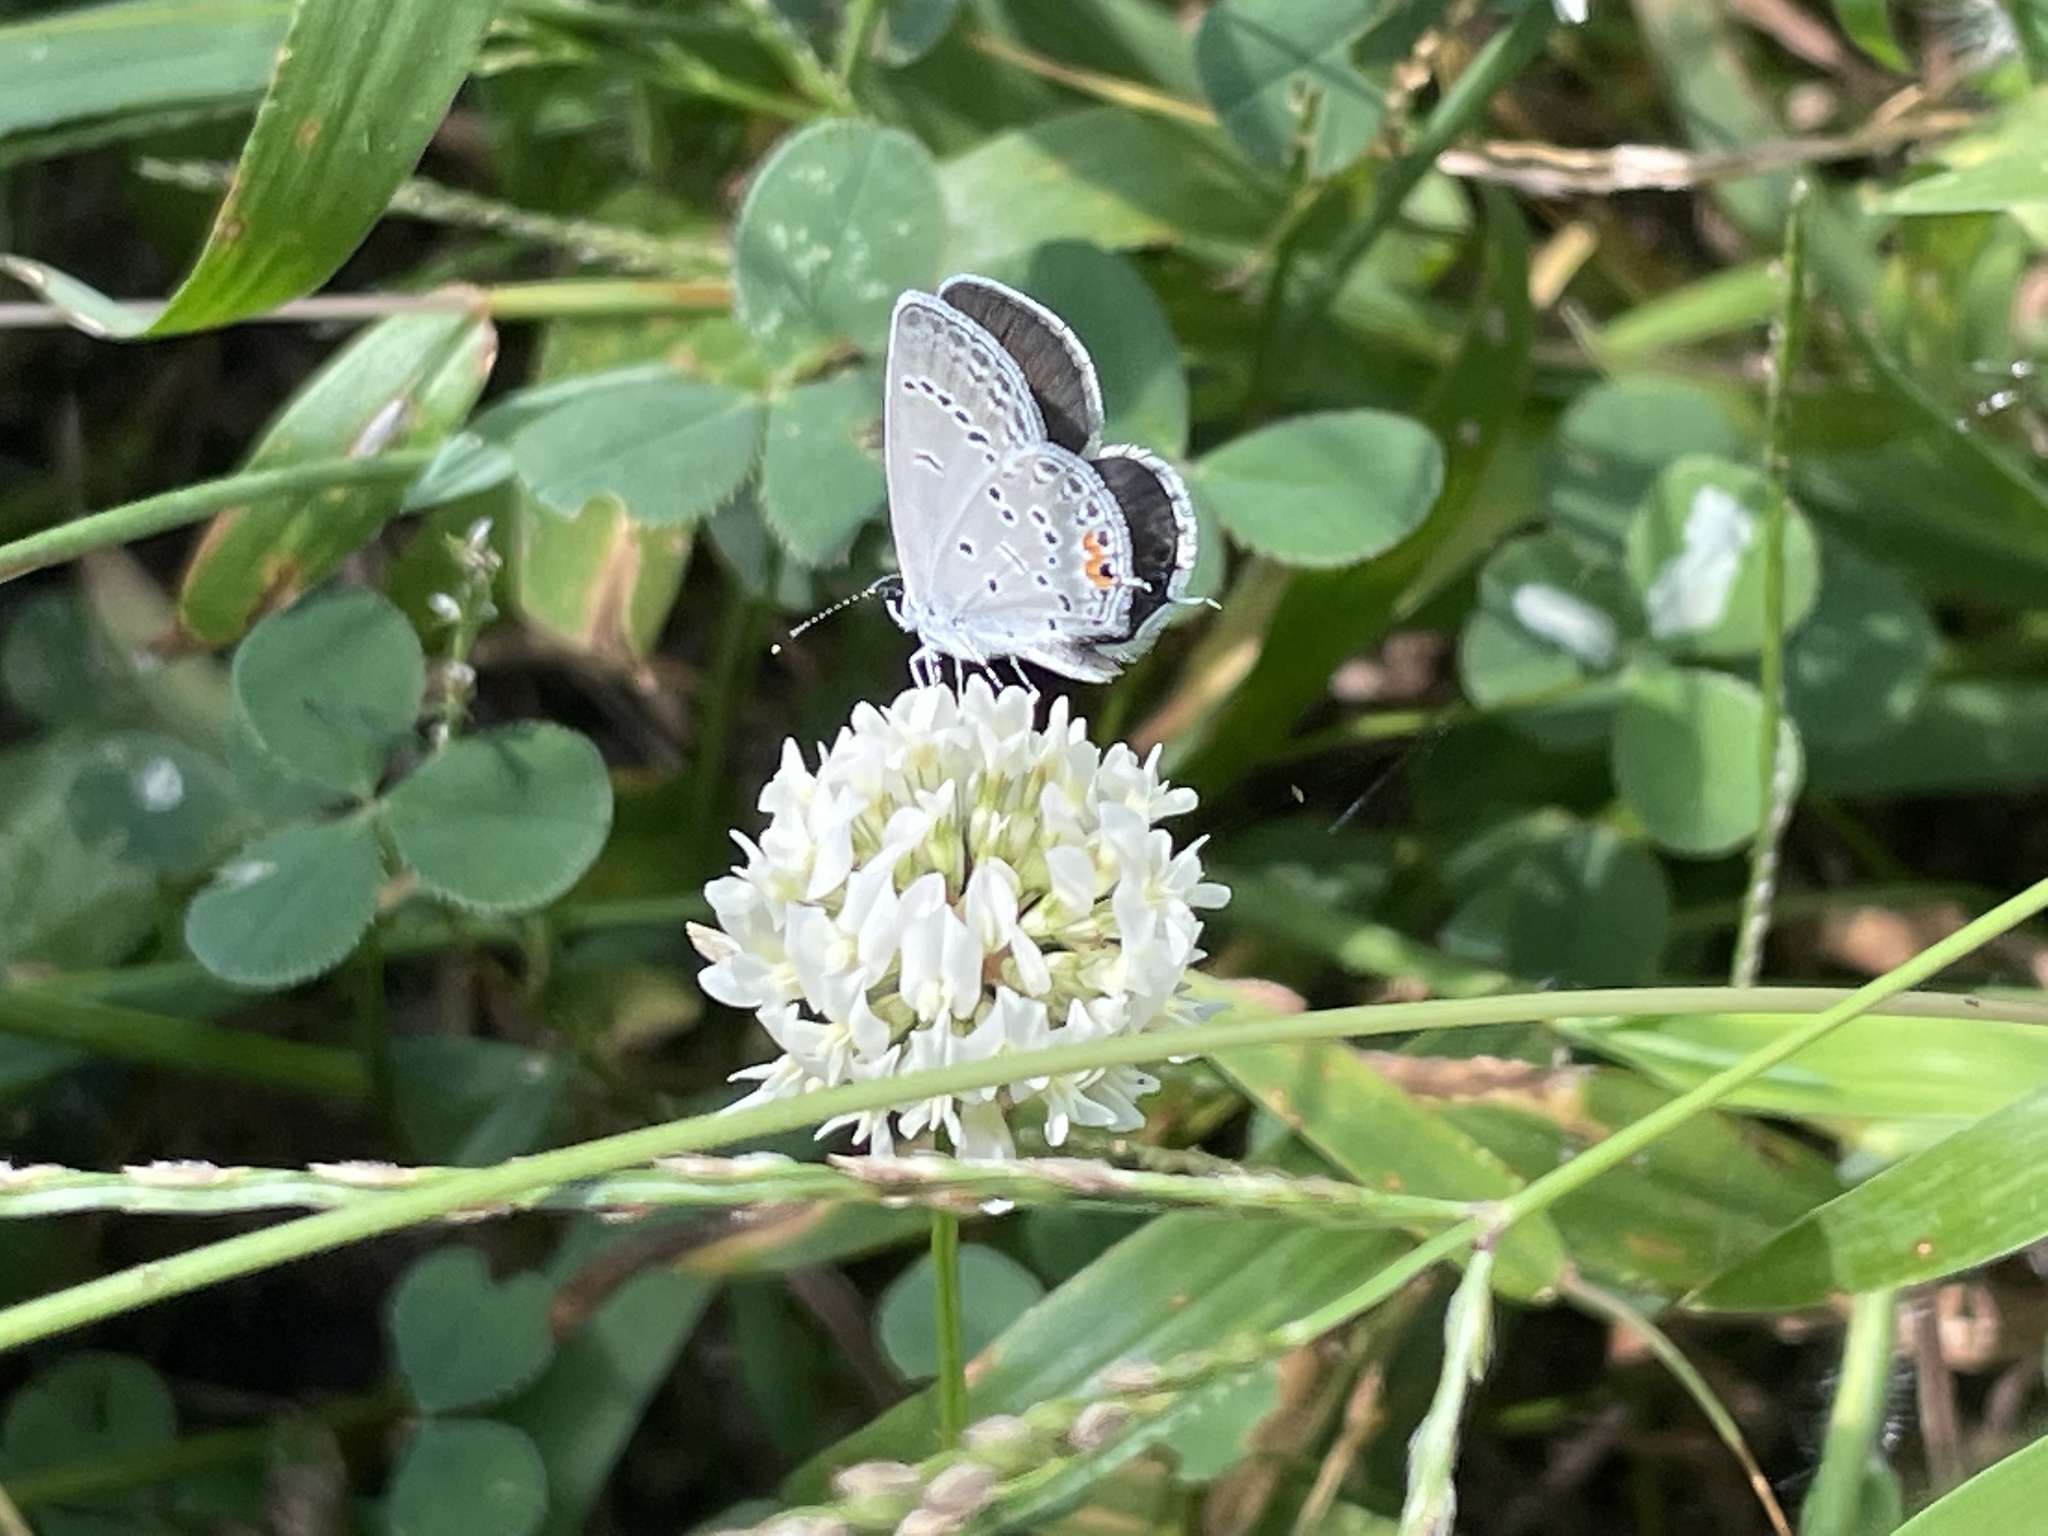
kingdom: Animalia
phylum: Arthropoda
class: Insecta
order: Lepidoptera
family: Lycaenidae
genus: Elkalyce
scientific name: Elkalyce comyntas
